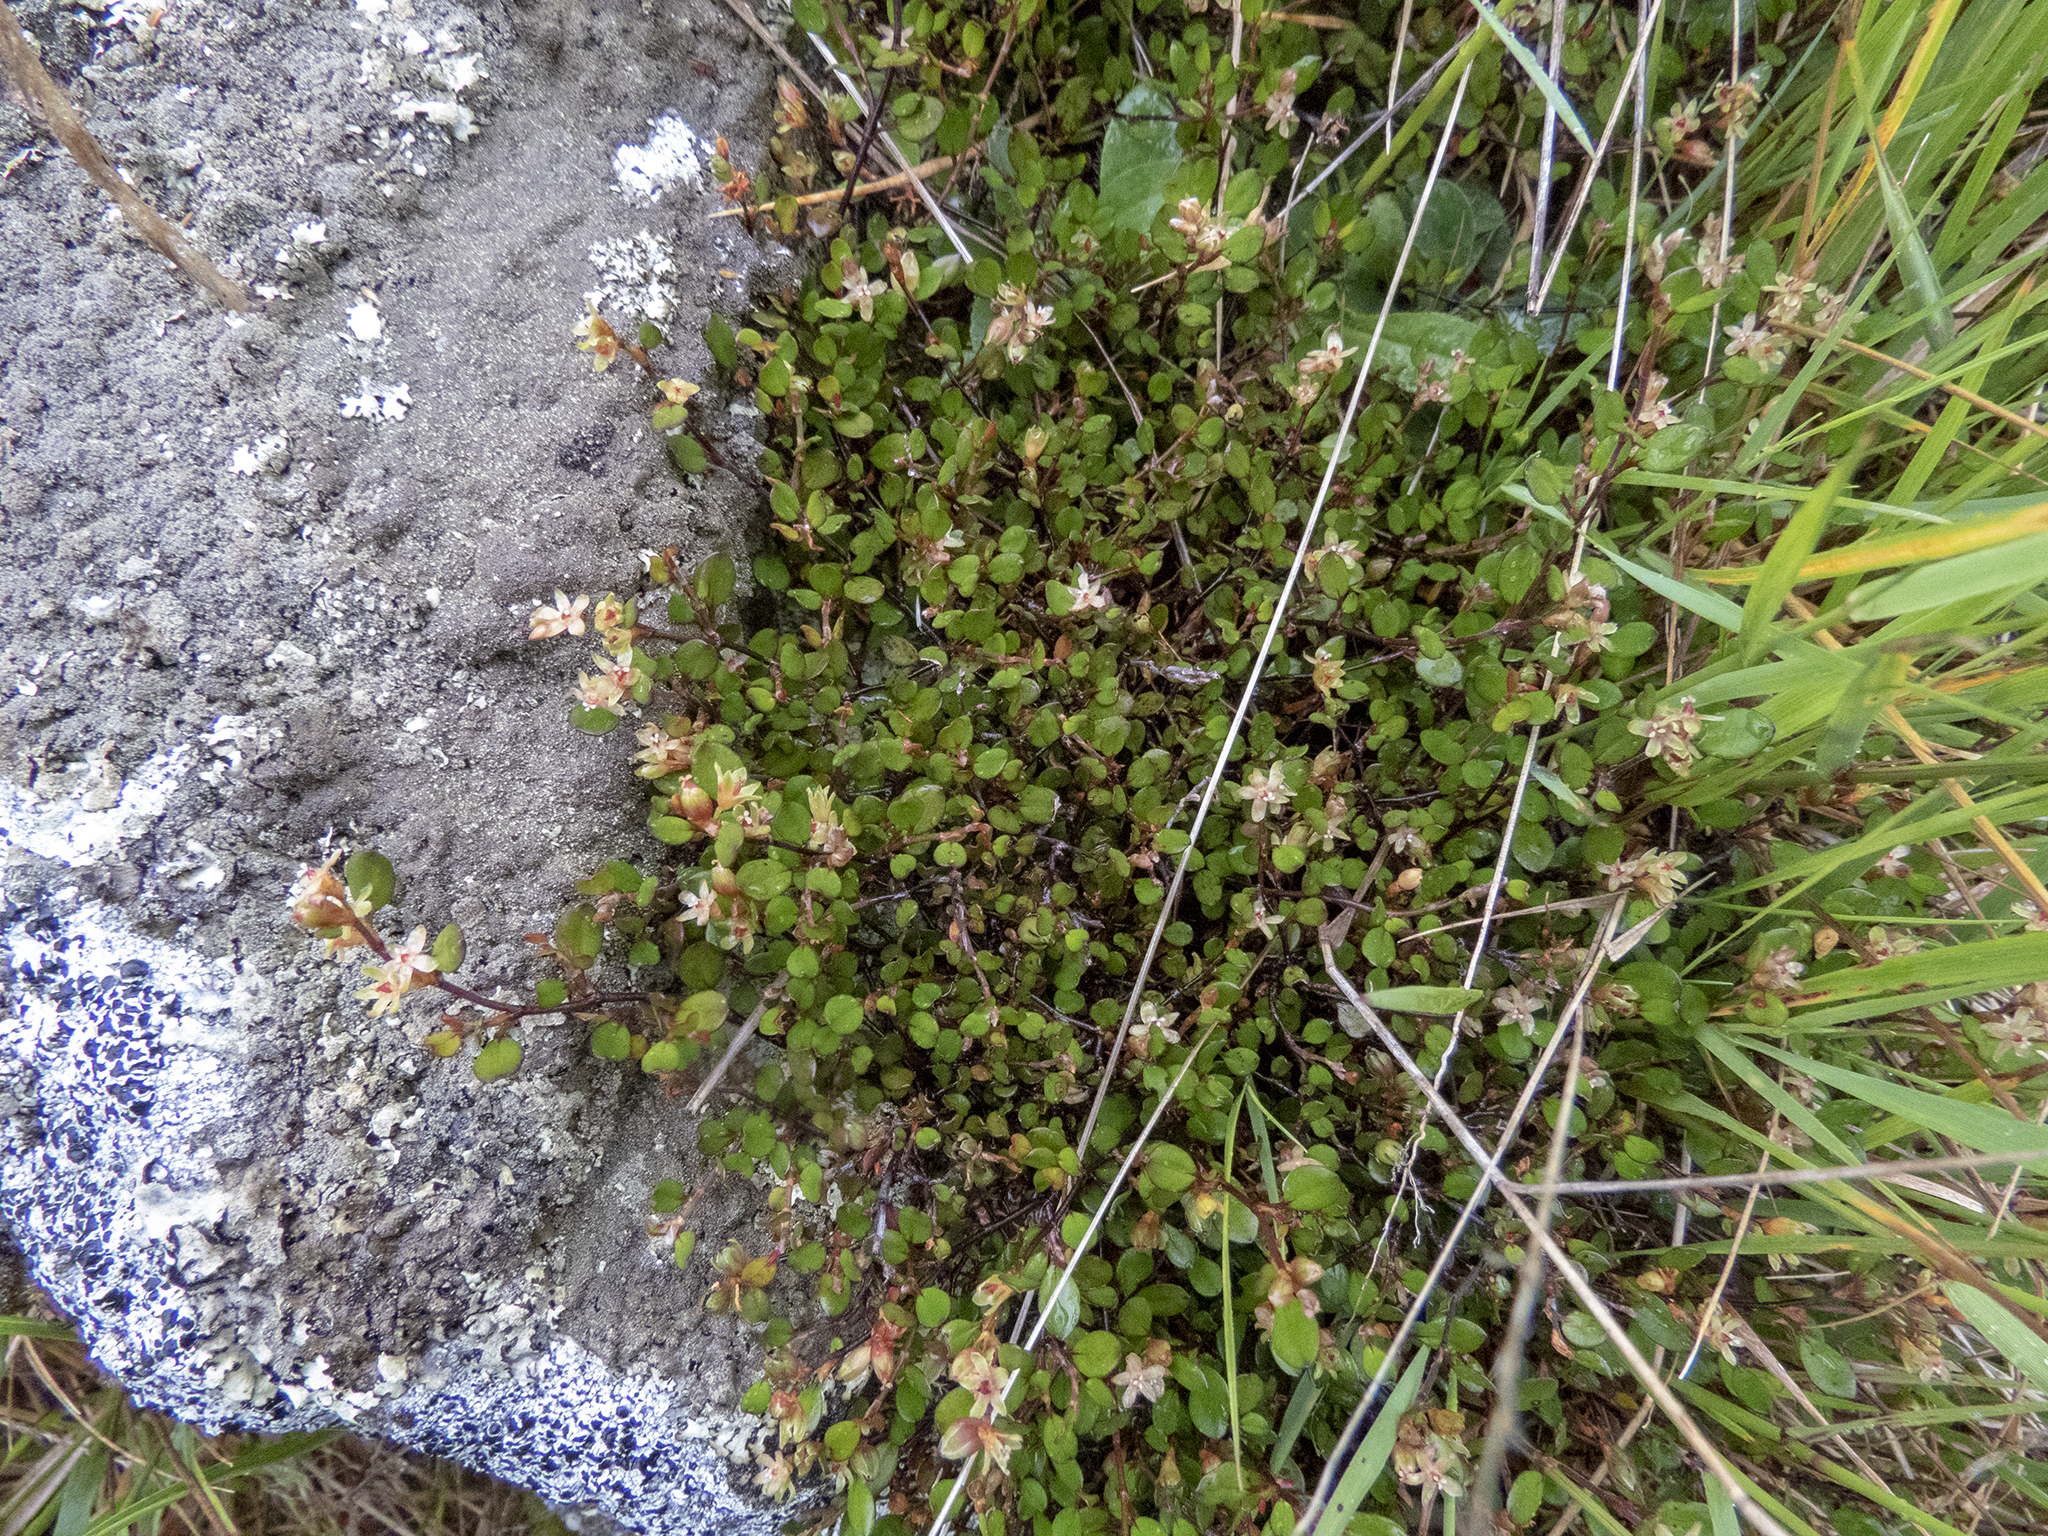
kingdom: Plantae
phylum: Tracheophyta
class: Magnoliopsida
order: Caryophyllales
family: Polygonaceae
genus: Muehlenbeckia
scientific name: Muehlenbeckia complexa
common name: Wireplant
